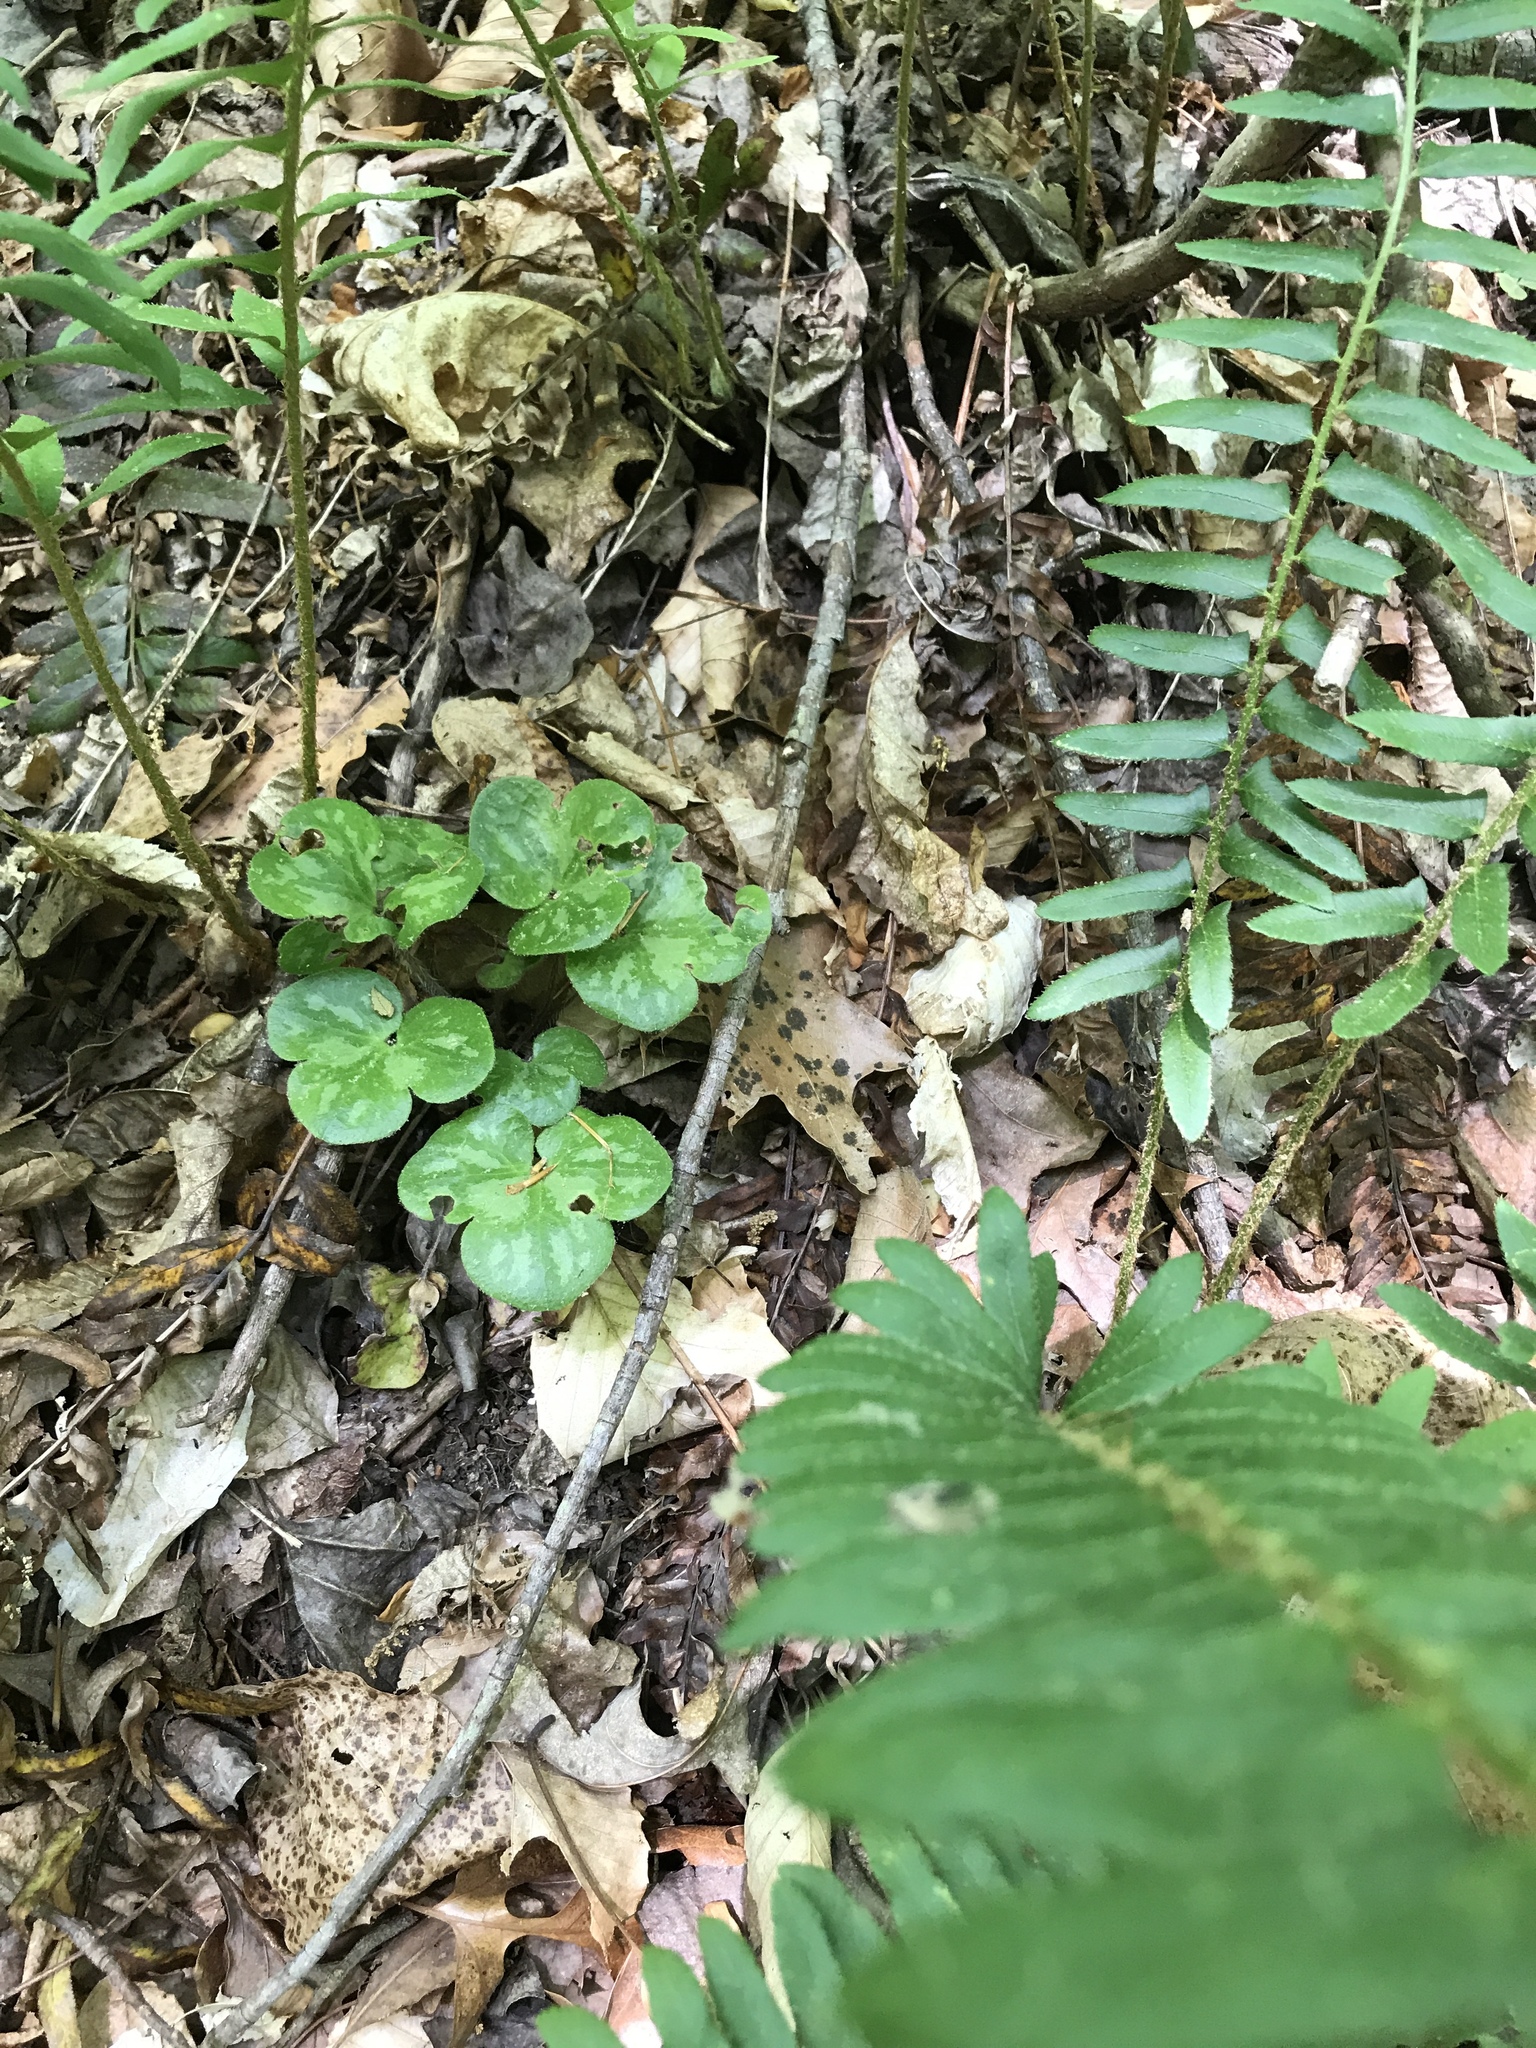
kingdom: Plantae
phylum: Tracheophyta
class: Magnoliopsida
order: Ranunculales
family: Ranunculaceae
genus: Hepatica
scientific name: Hepatica americana
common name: American hepatica
